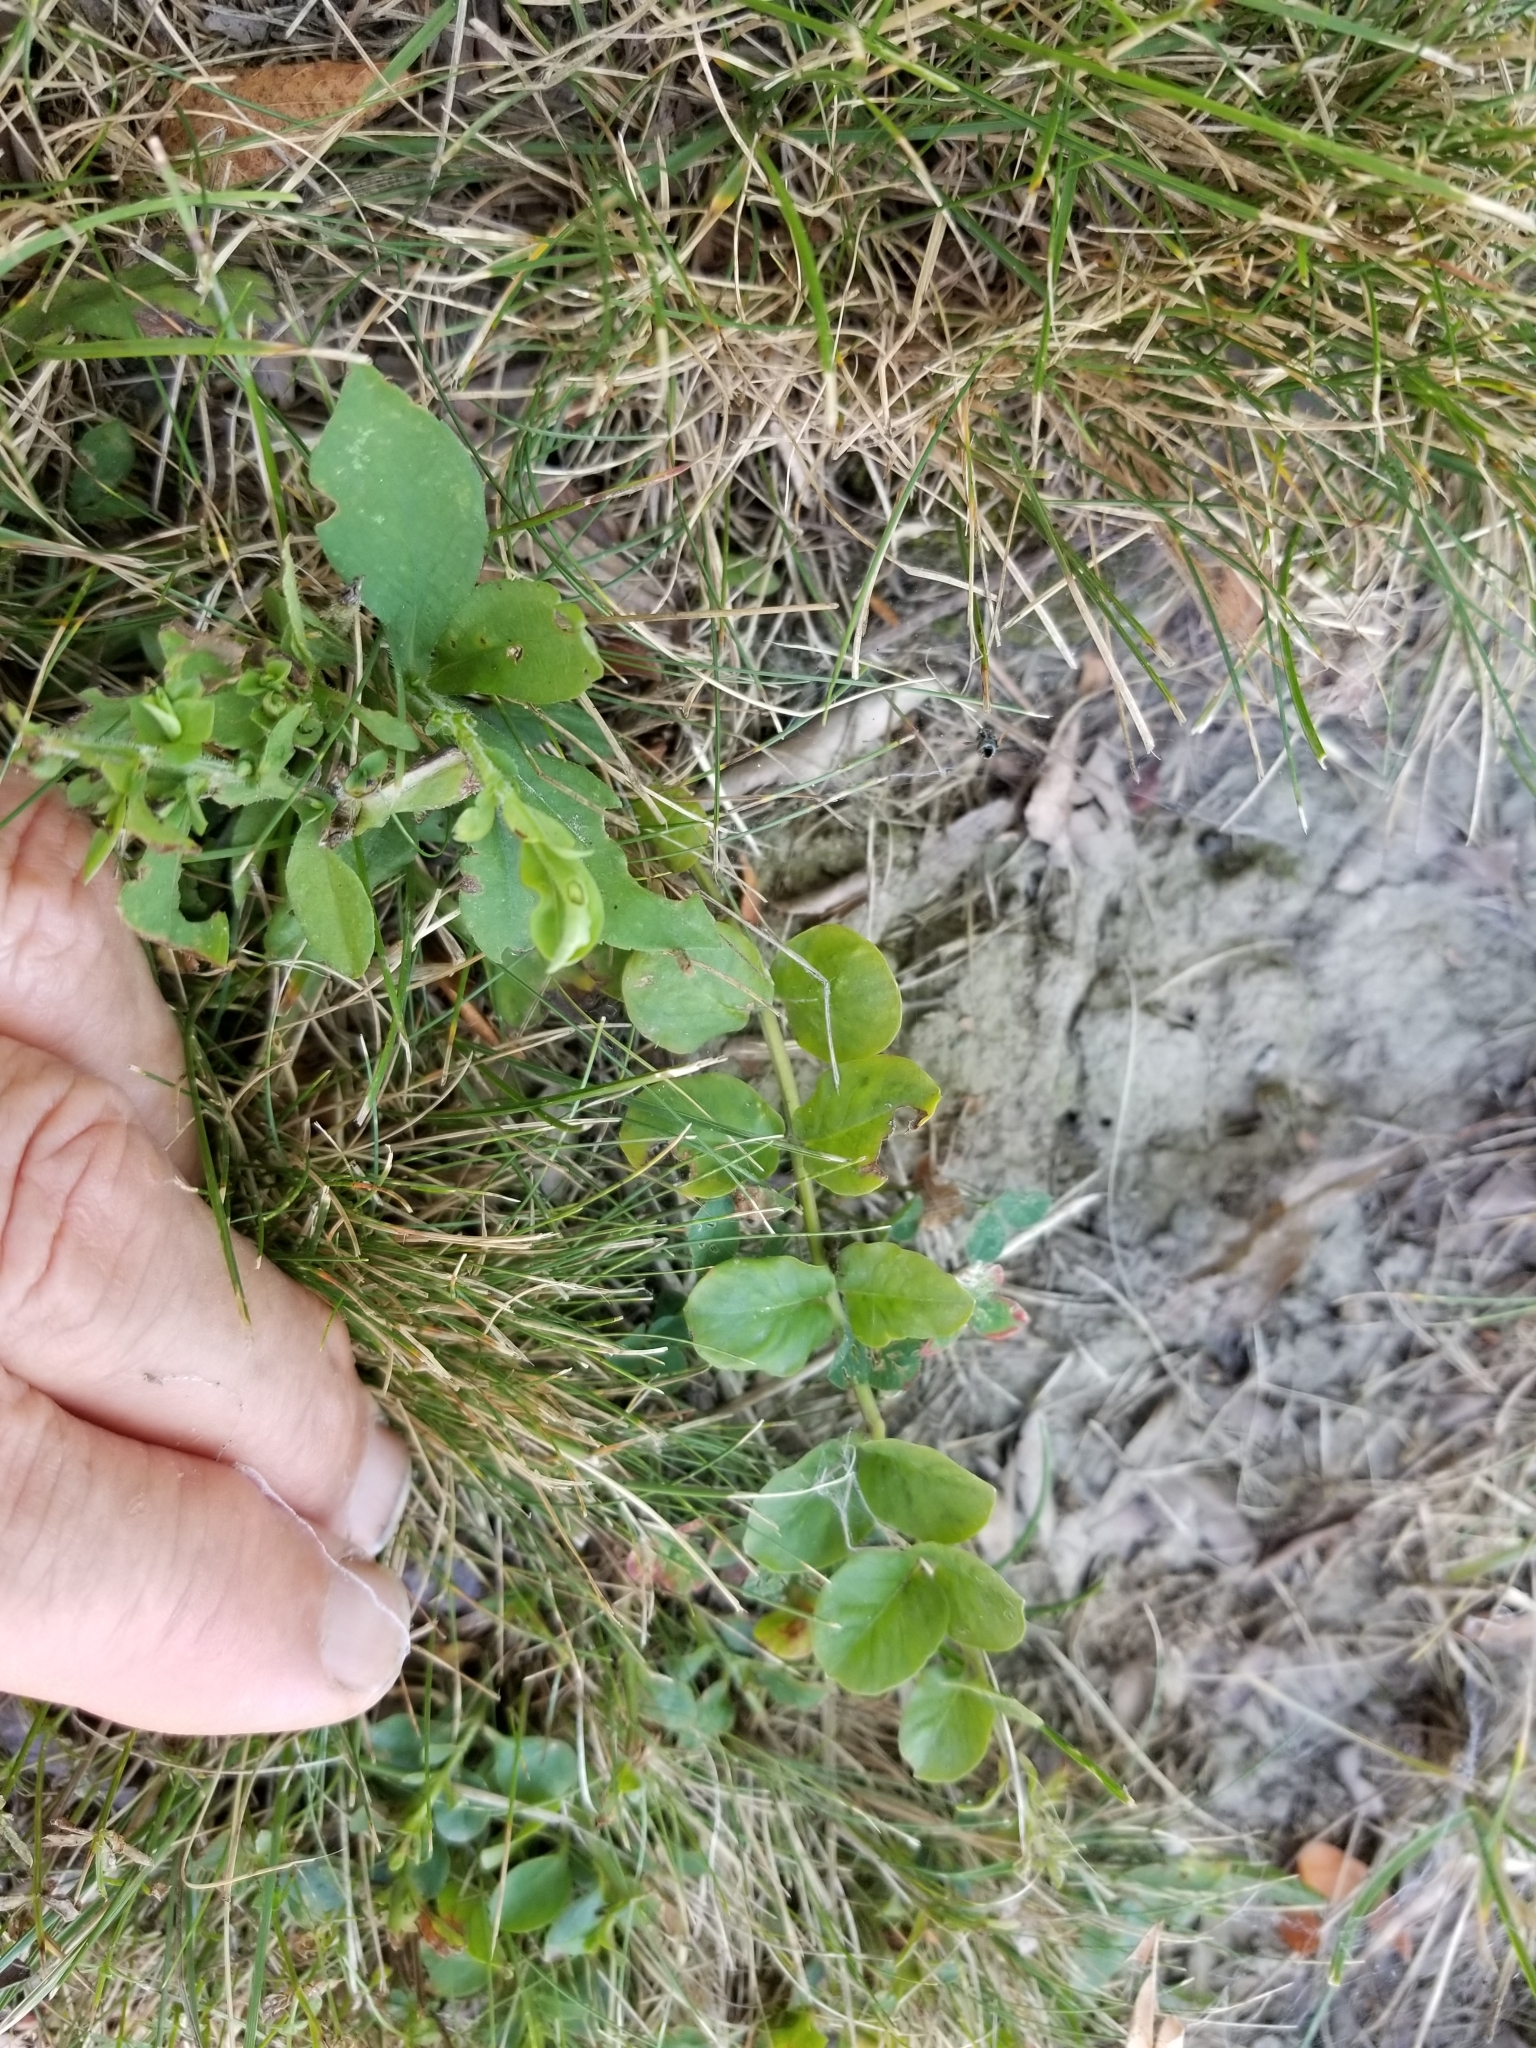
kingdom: Plantae
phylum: Tracheophyta
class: Magnoliopsida
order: Ericales
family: Primulaceae
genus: Lysimachia
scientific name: Lysimachia nummularia
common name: Moneywort
